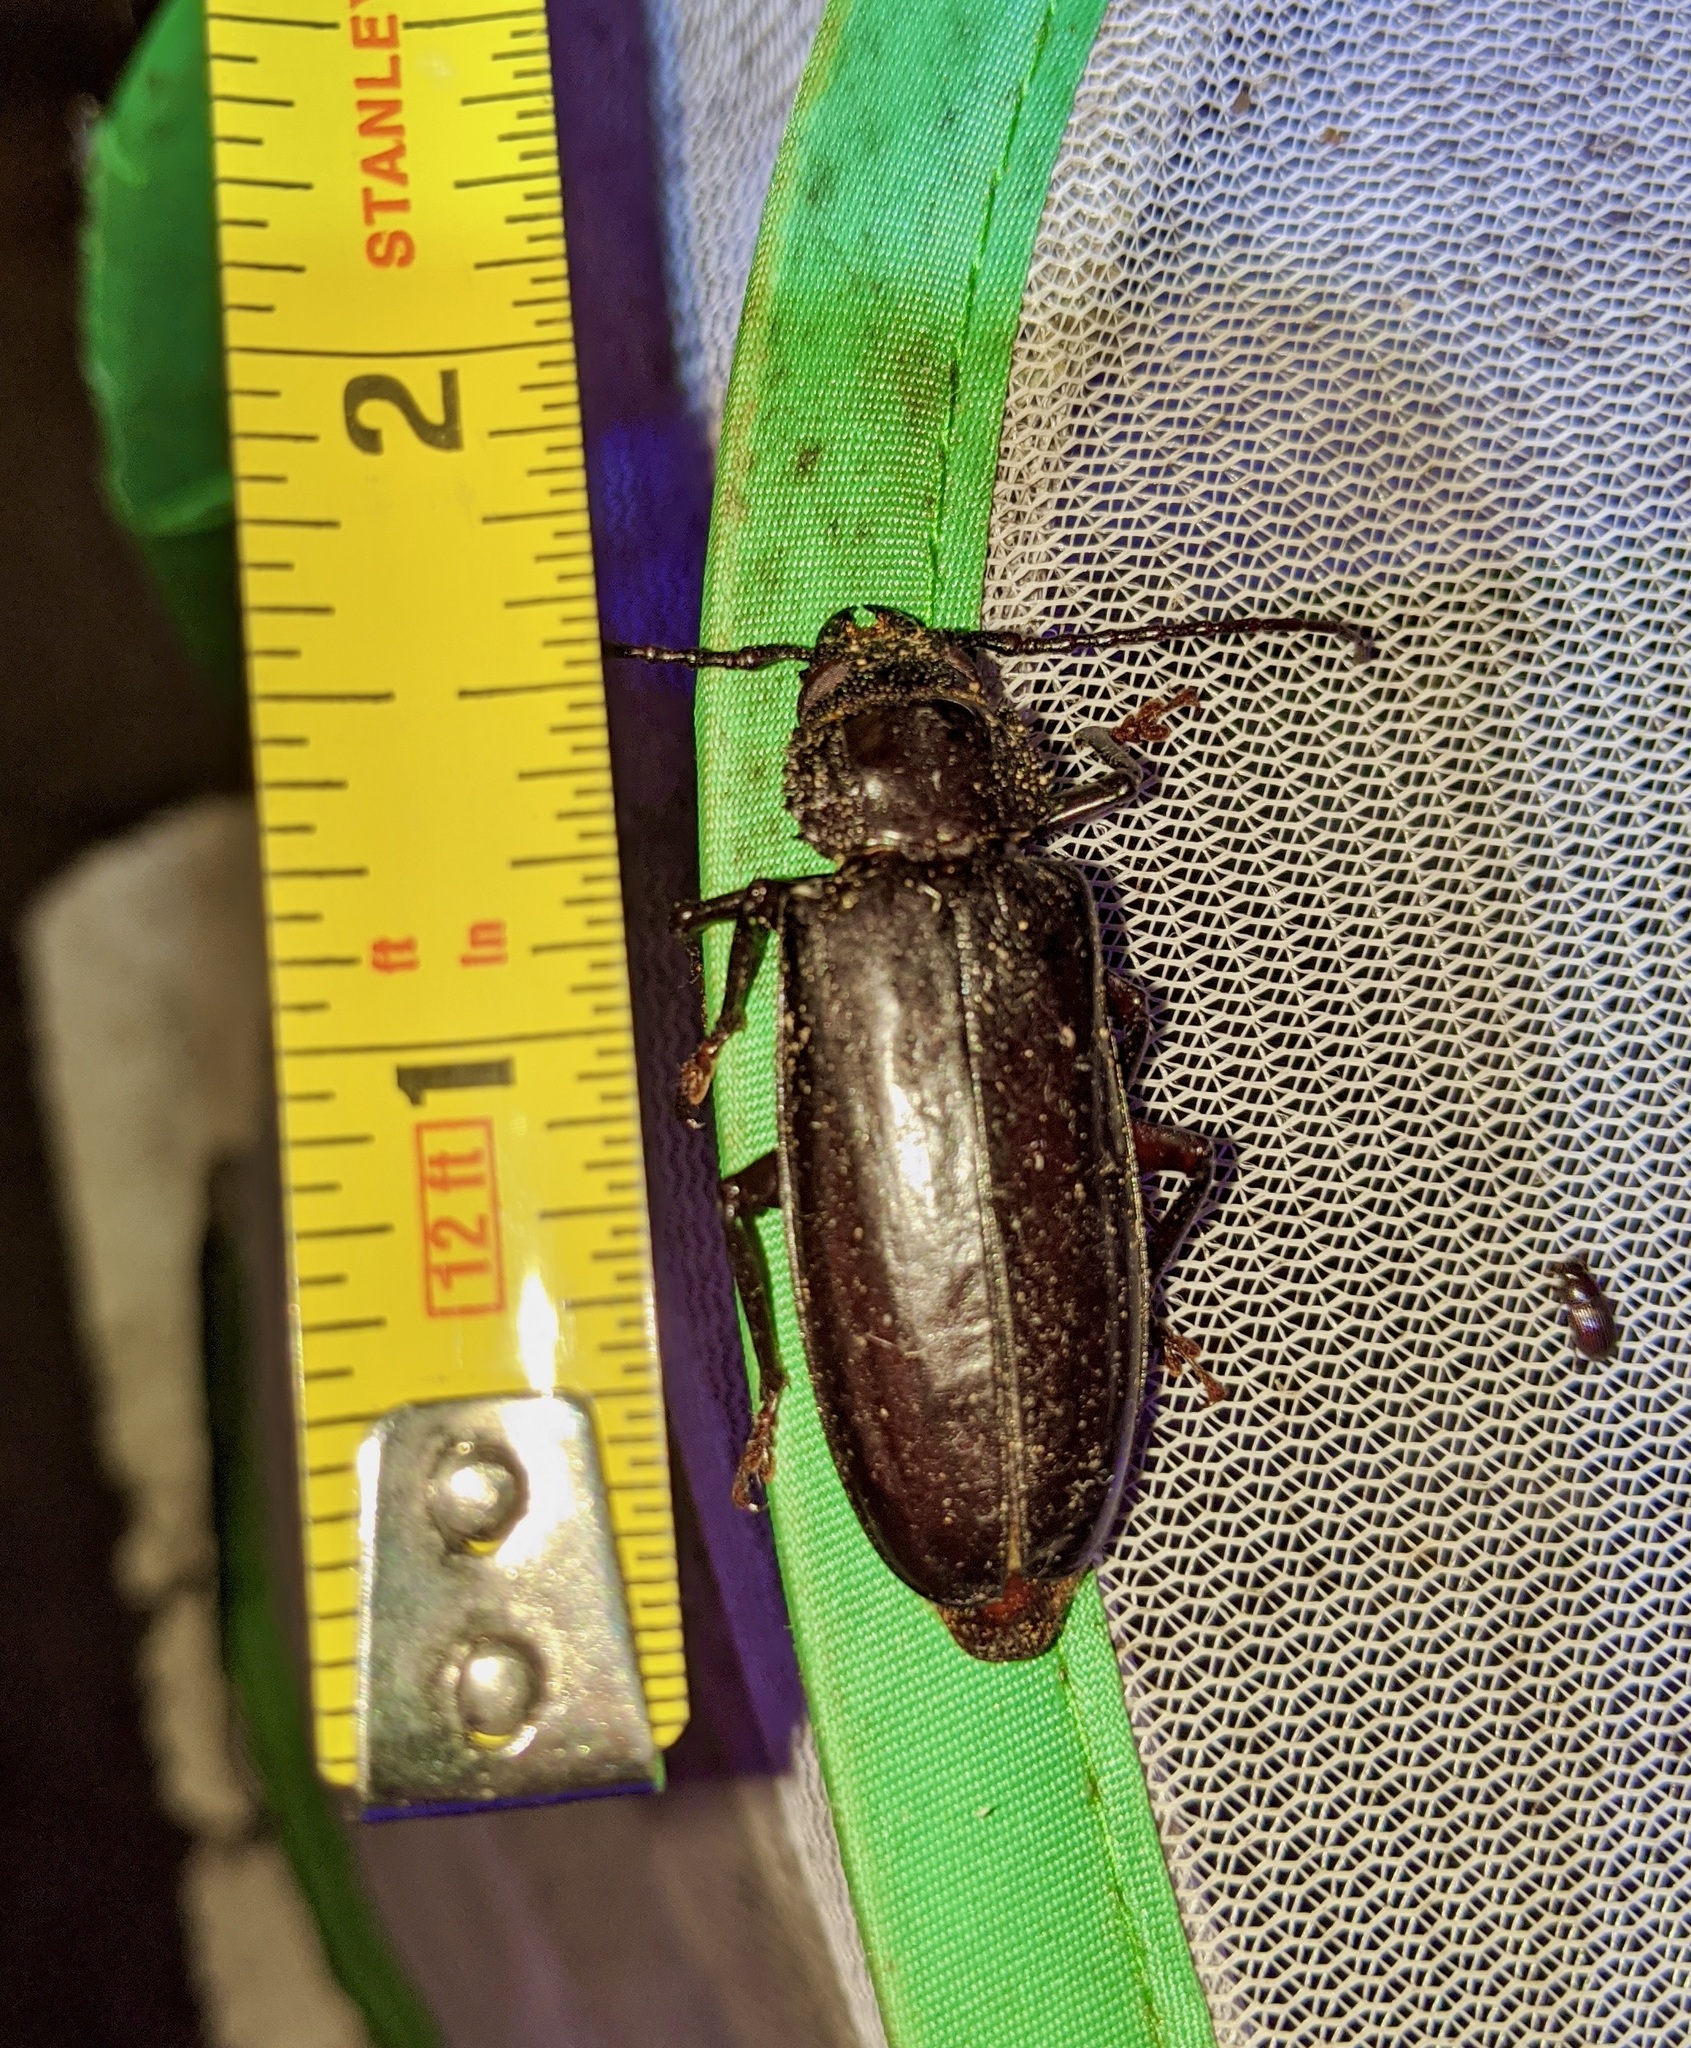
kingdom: Animalia
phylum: Arthropoda
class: Insecta
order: Coleoptera
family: Cerambycidae
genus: Archodontes
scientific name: Archodontes melanopus
